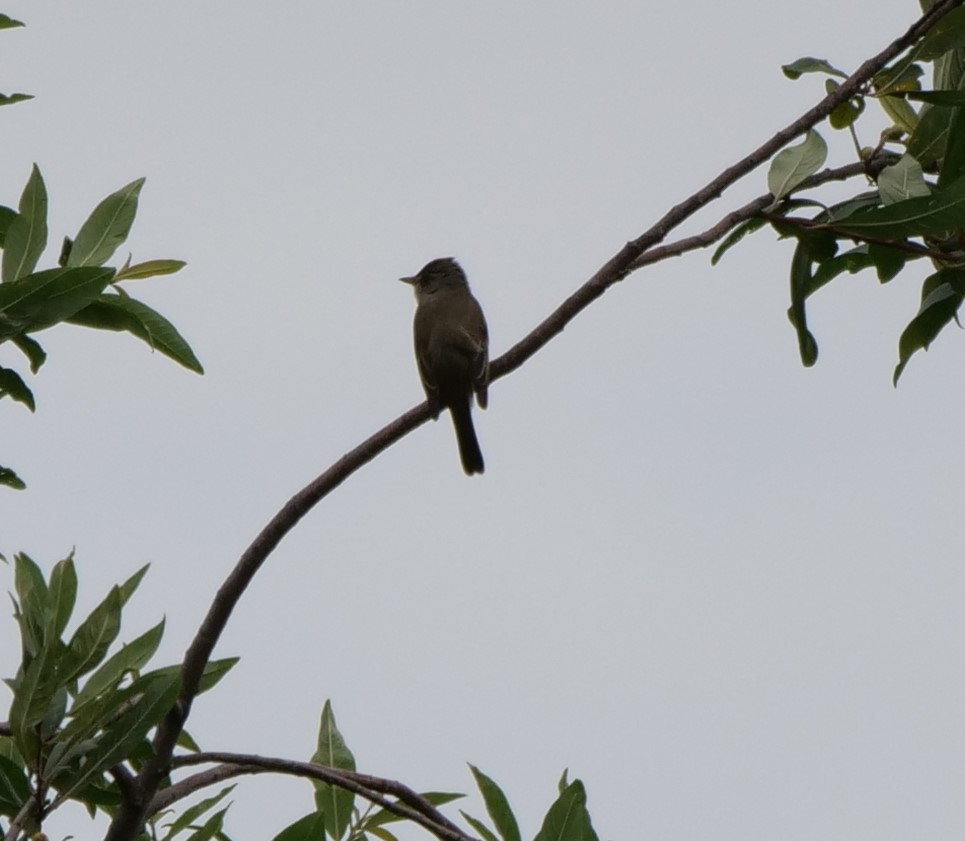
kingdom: Animalia
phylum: Chordata
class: Aves
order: Passeriformes
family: Tyrannidae
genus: Empidonax
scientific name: Empidonax traillii
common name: Willow flycatcher
